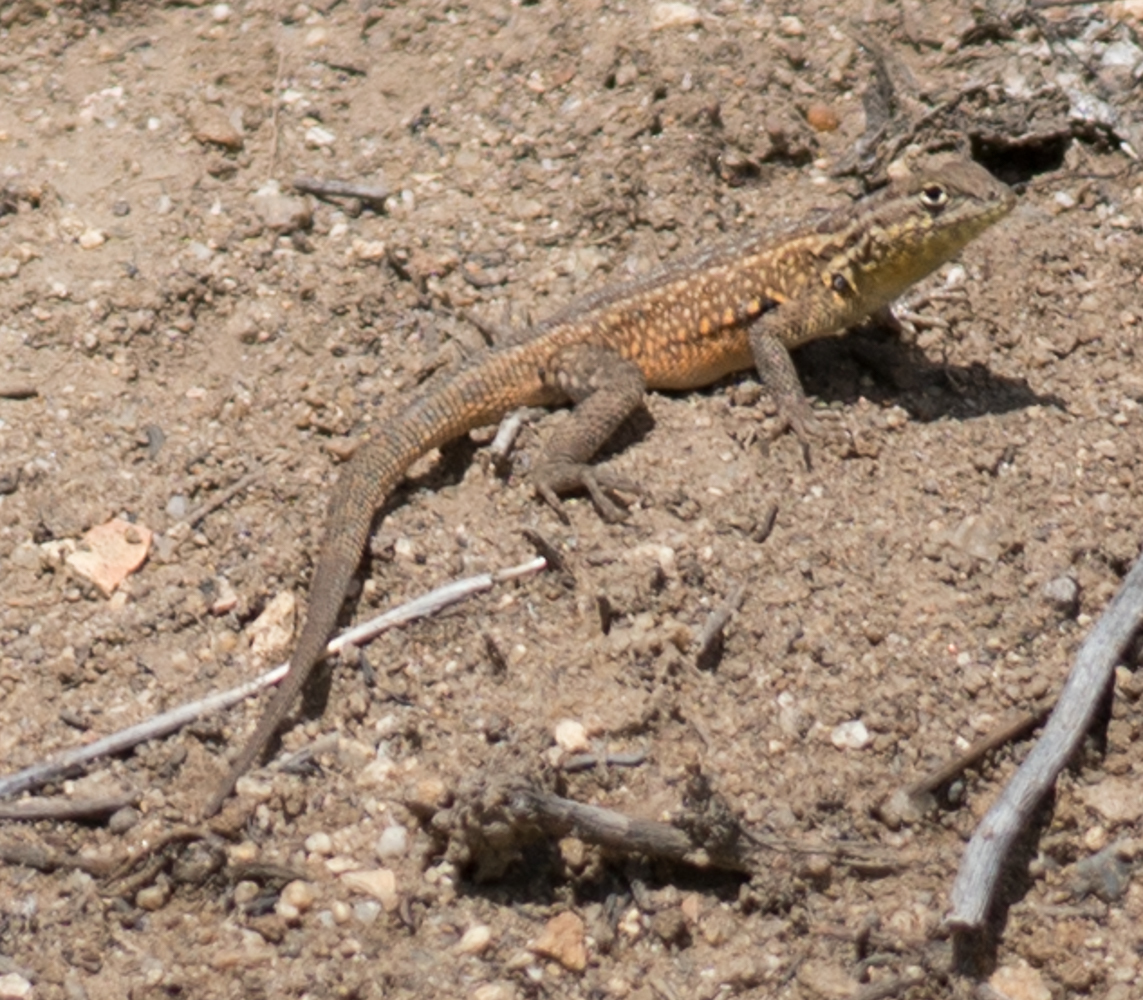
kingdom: Animalia
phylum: Chordata
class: Squamata
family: Phrynosomatidae
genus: Uta
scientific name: Uta stansburiana
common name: Side-blotched lizard
